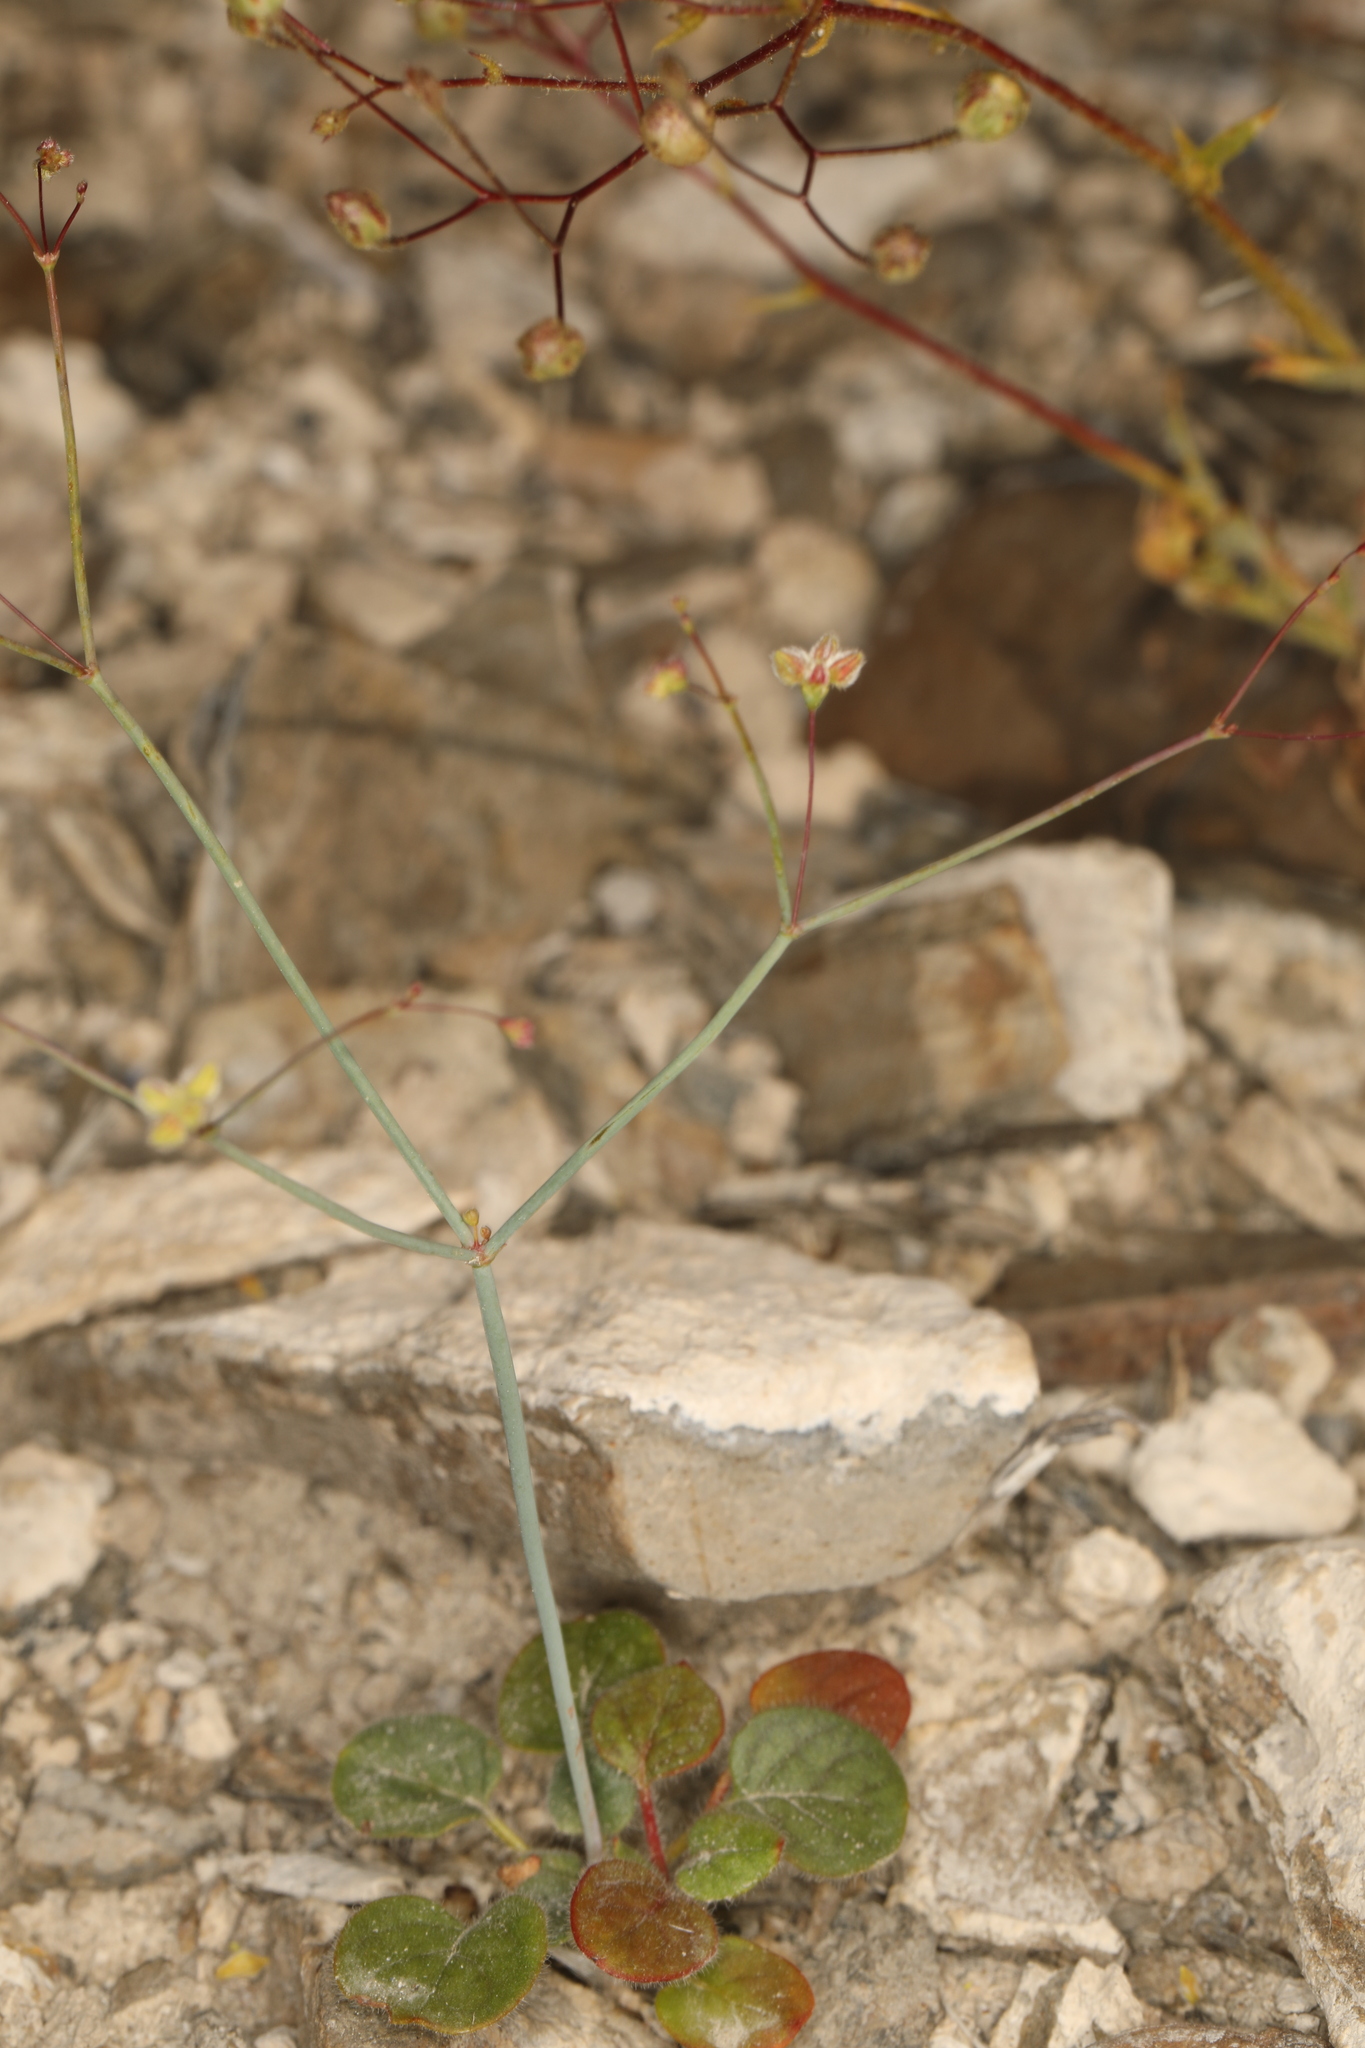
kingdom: Plantae
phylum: Tracheophyta
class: Magnoliopsida
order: Caryophyllales
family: Polygonaceae
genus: Eriogonum
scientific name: Eriogonum inflatum
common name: Desert trumpet
